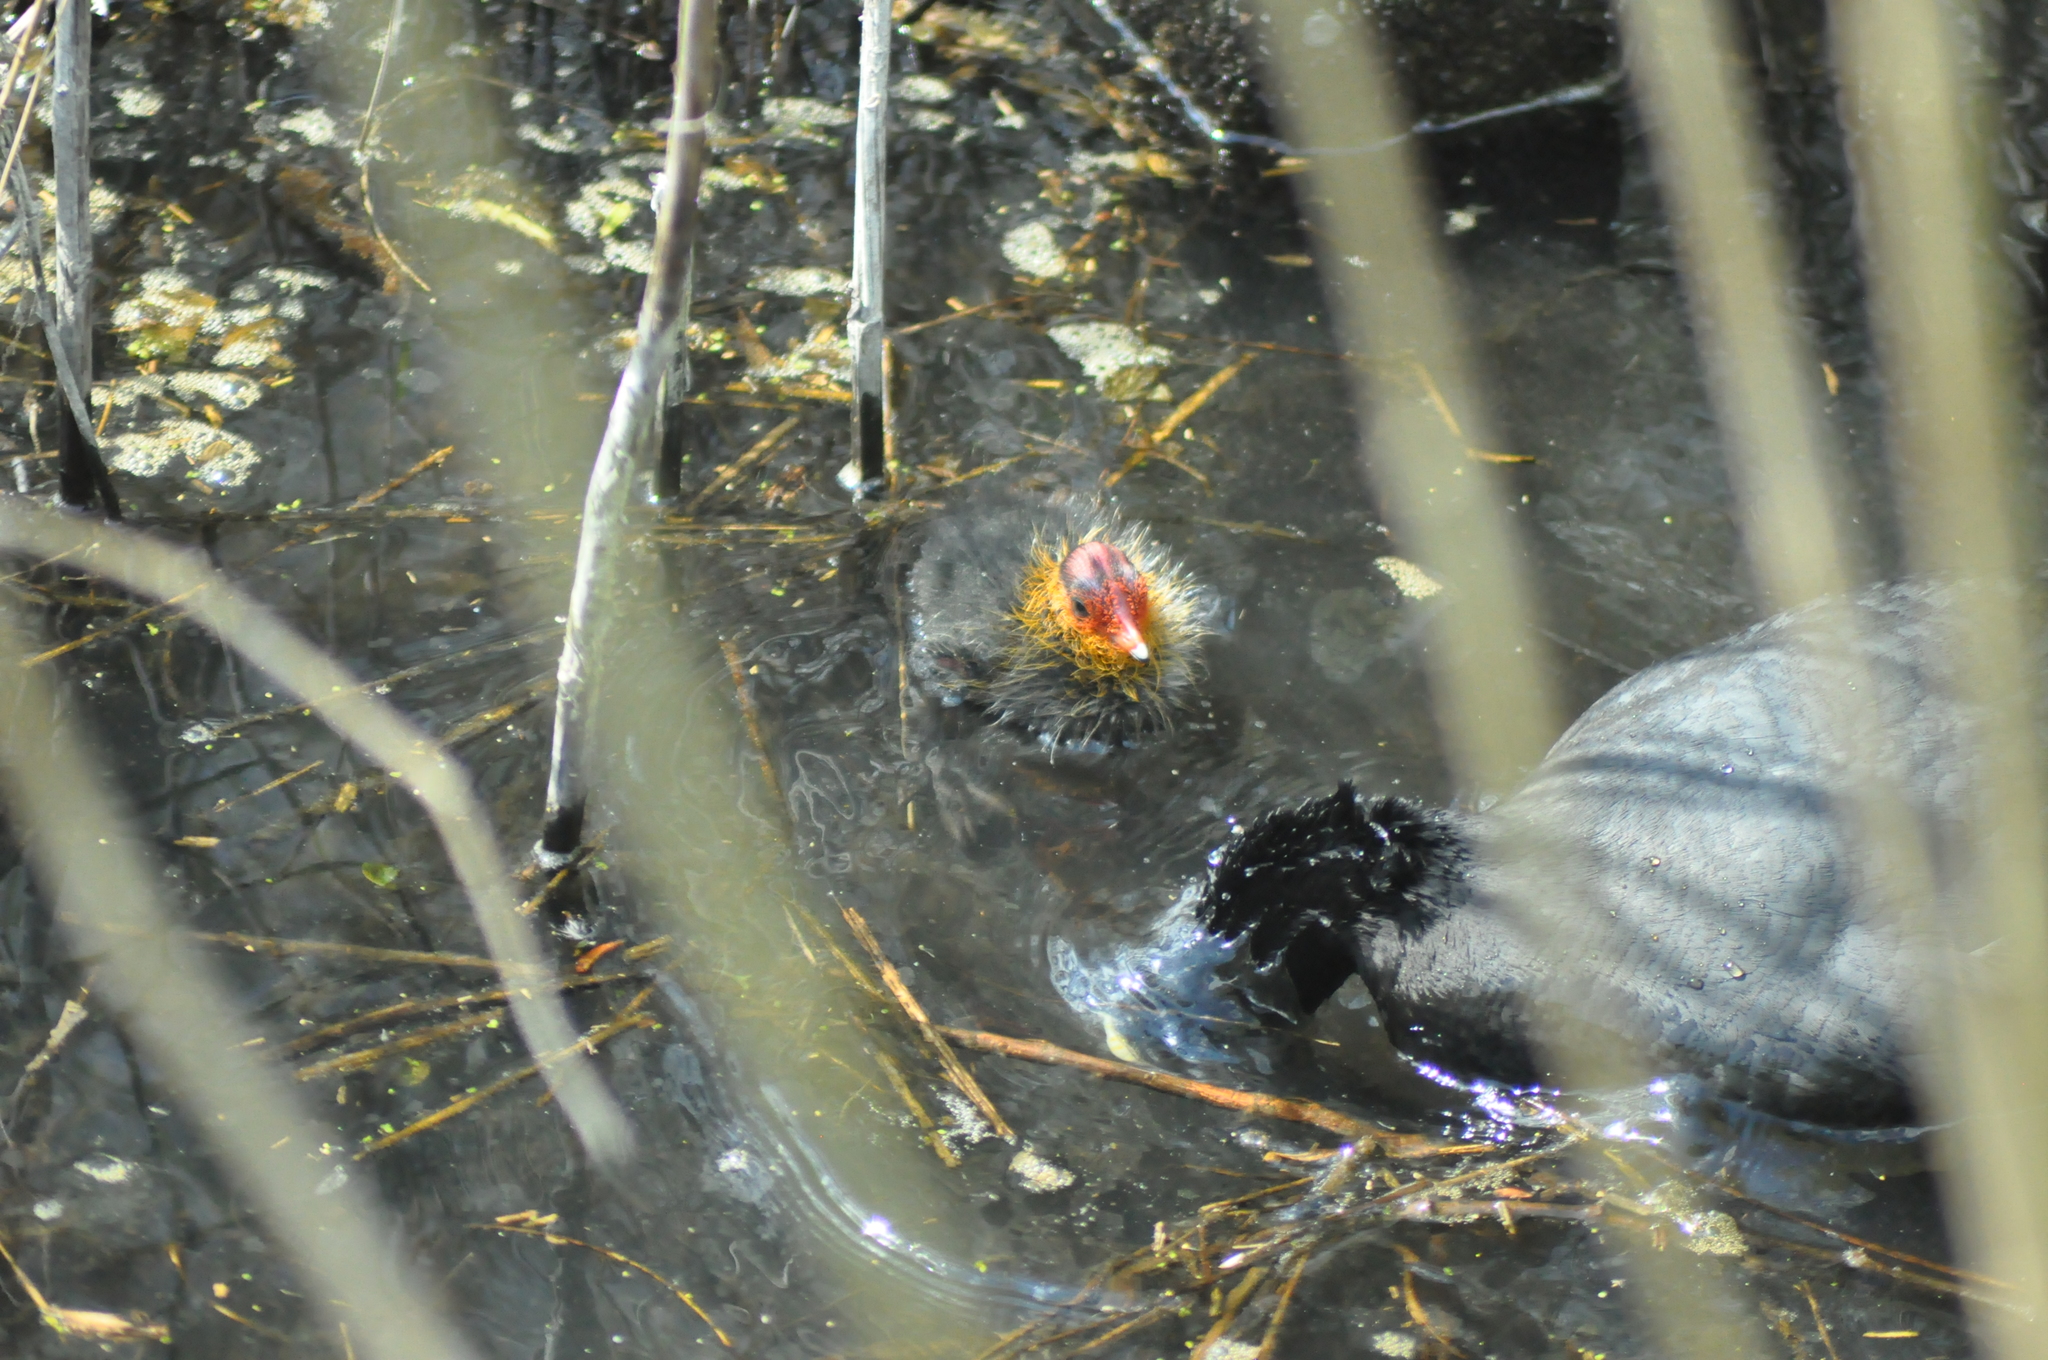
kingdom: Animalia
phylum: Chordata
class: Aves
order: Gruiformes
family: Rallidae
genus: Fulica
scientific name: Fulica atra
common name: Eurasian coot
